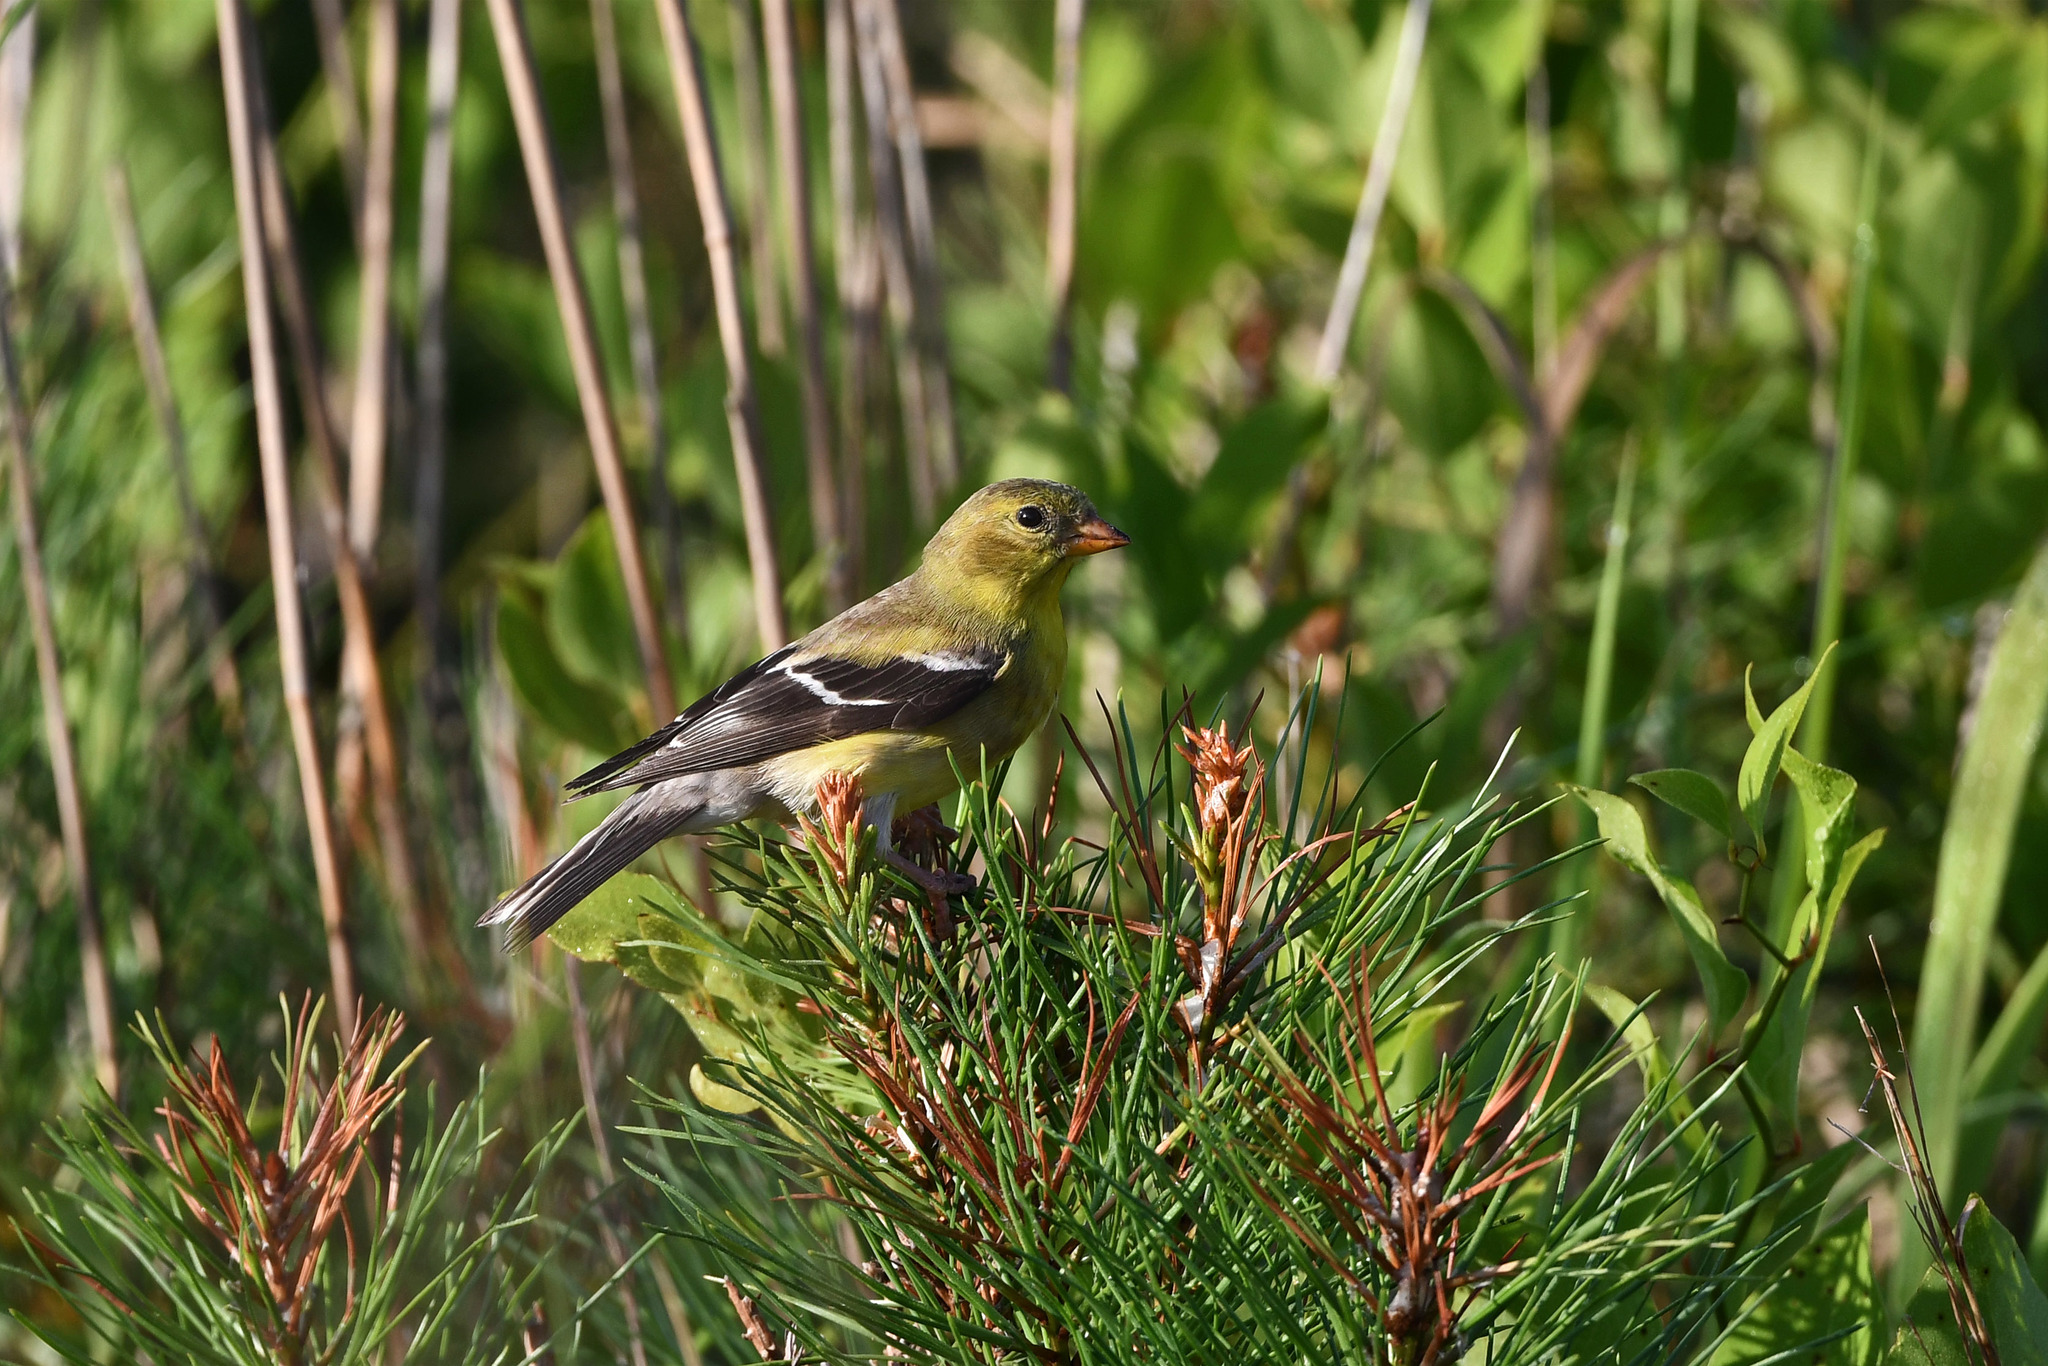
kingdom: Animalia
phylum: Chordata
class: Aves
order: Passeriformes
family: Fringillidae
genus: Spinus
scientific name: Spinus tristis
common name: American goldfinch
